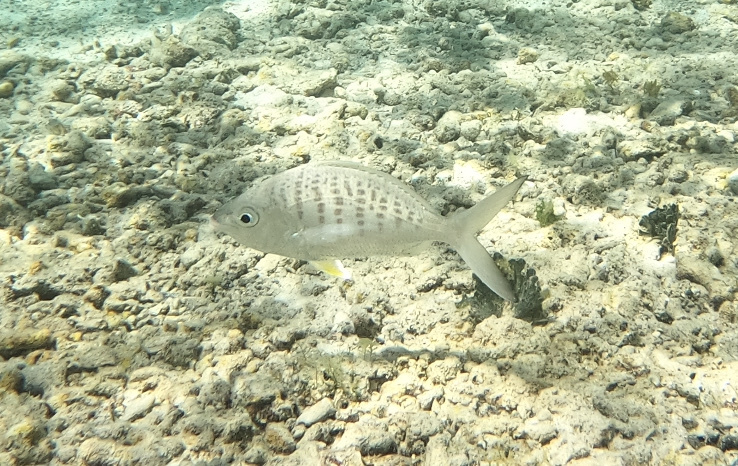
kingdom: Animalia
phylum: Chordata
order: Perciformes
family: Gerreidae
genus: Gerres
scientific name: Gerres cinereus
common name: Hedow
